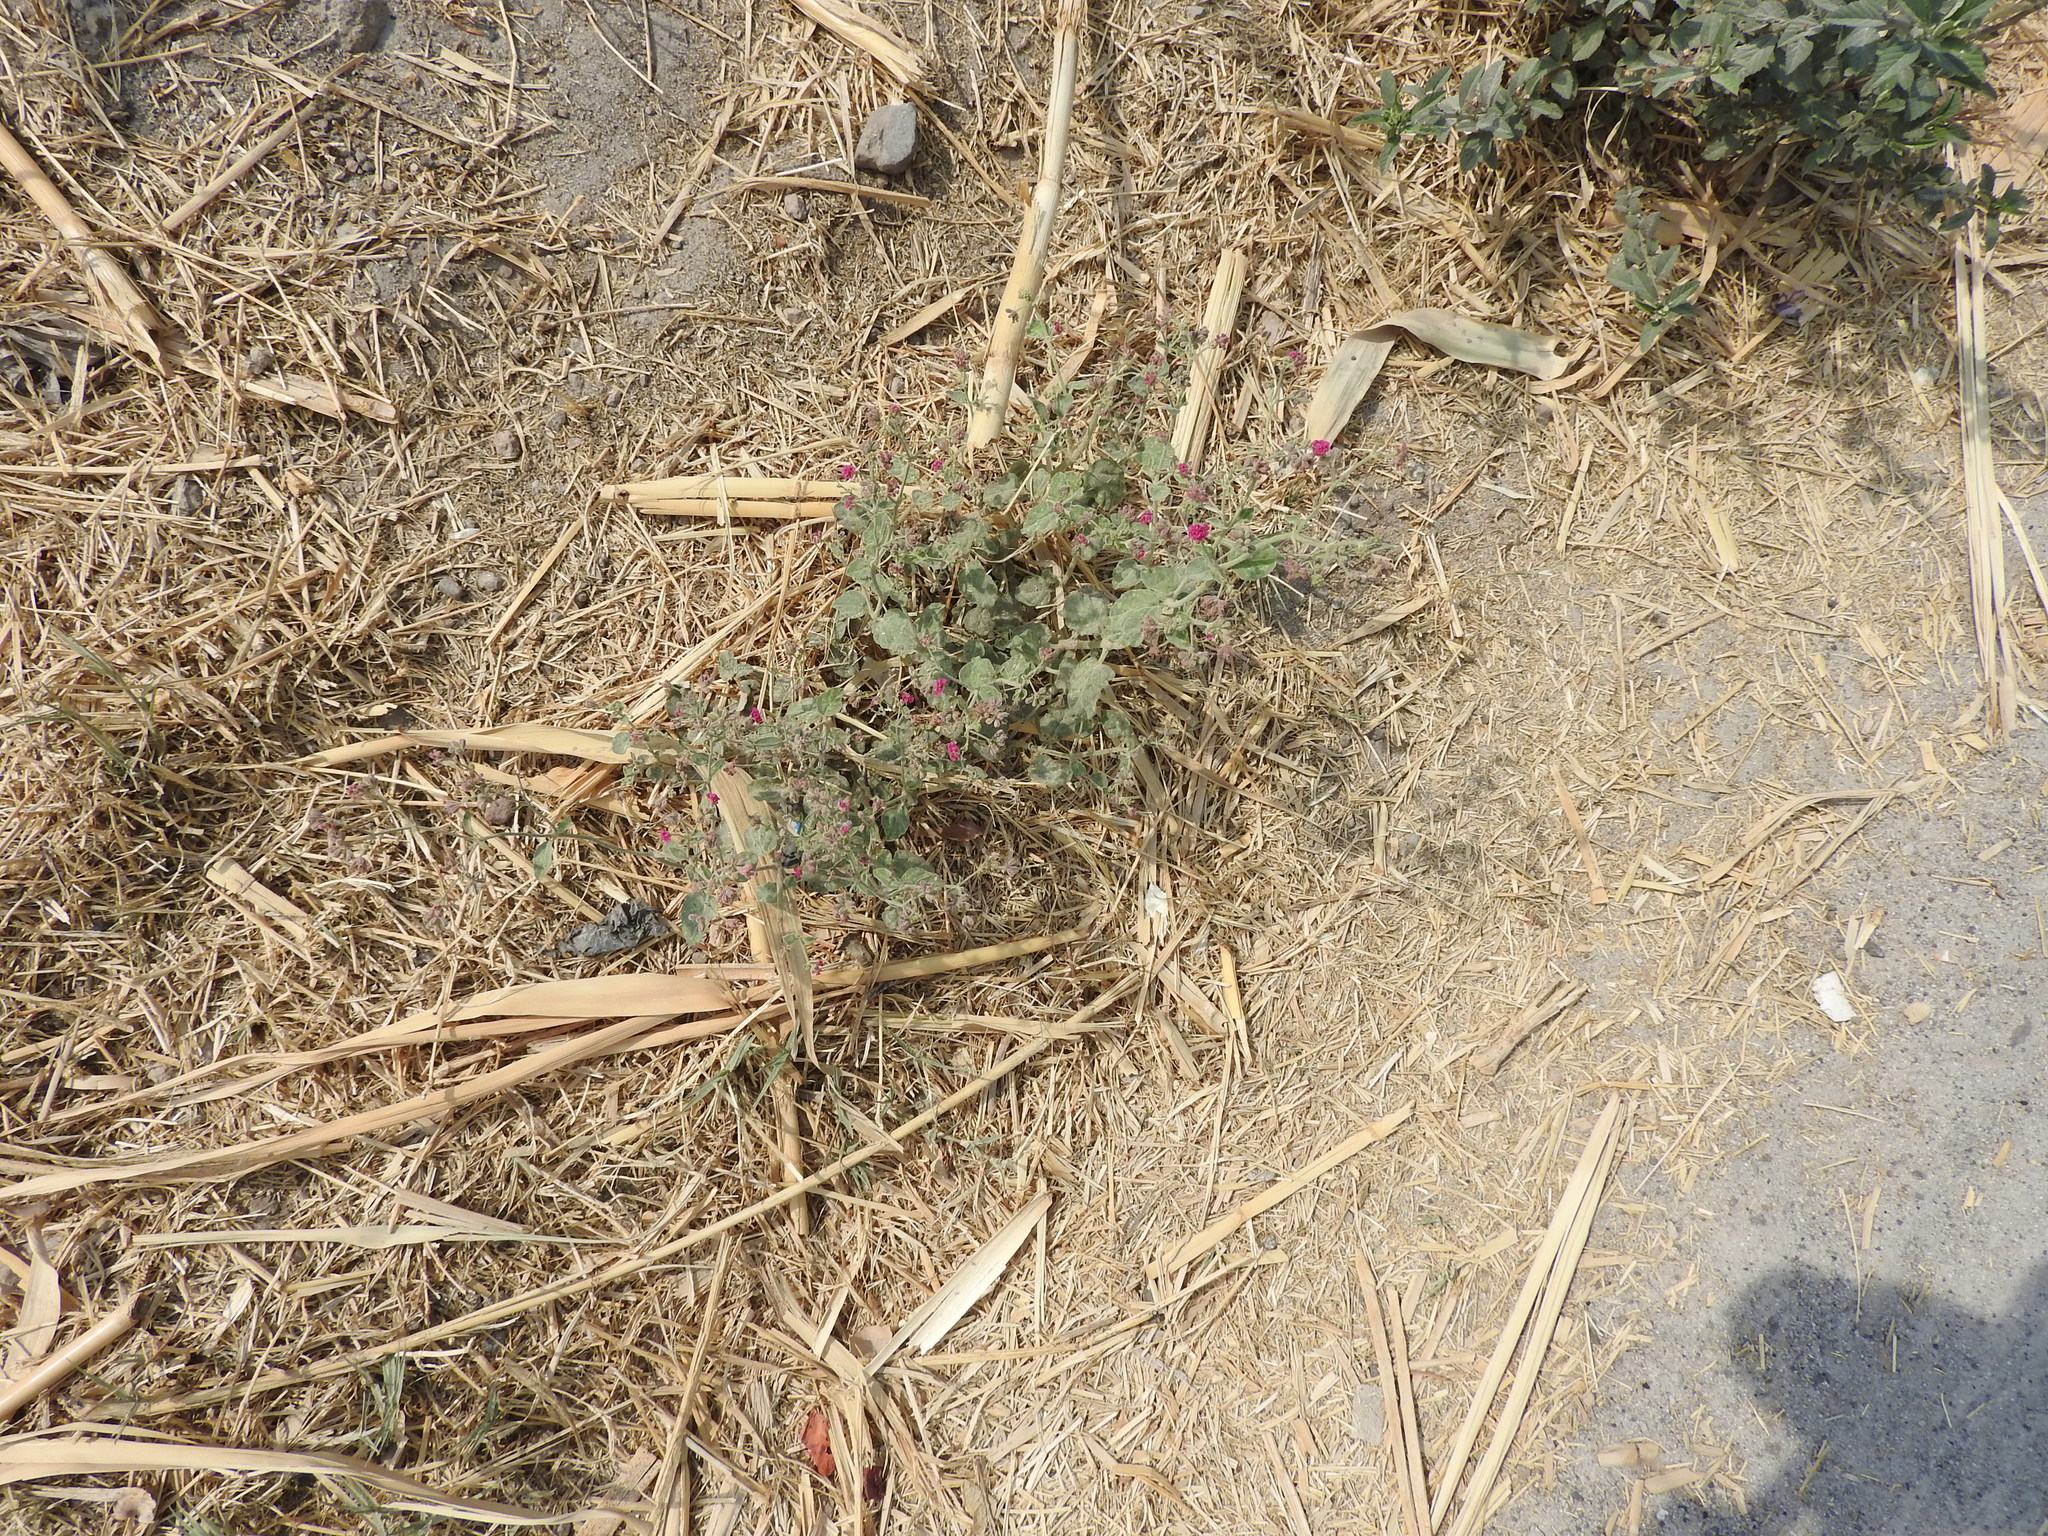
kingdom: Plantae
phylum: Tracheophyta
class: Magnoliopsida
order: Caryophyllales
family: Nyctaginaceae
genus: Boerhavia
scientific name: Boerhavia coccinea
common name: Scarlet spiderling
